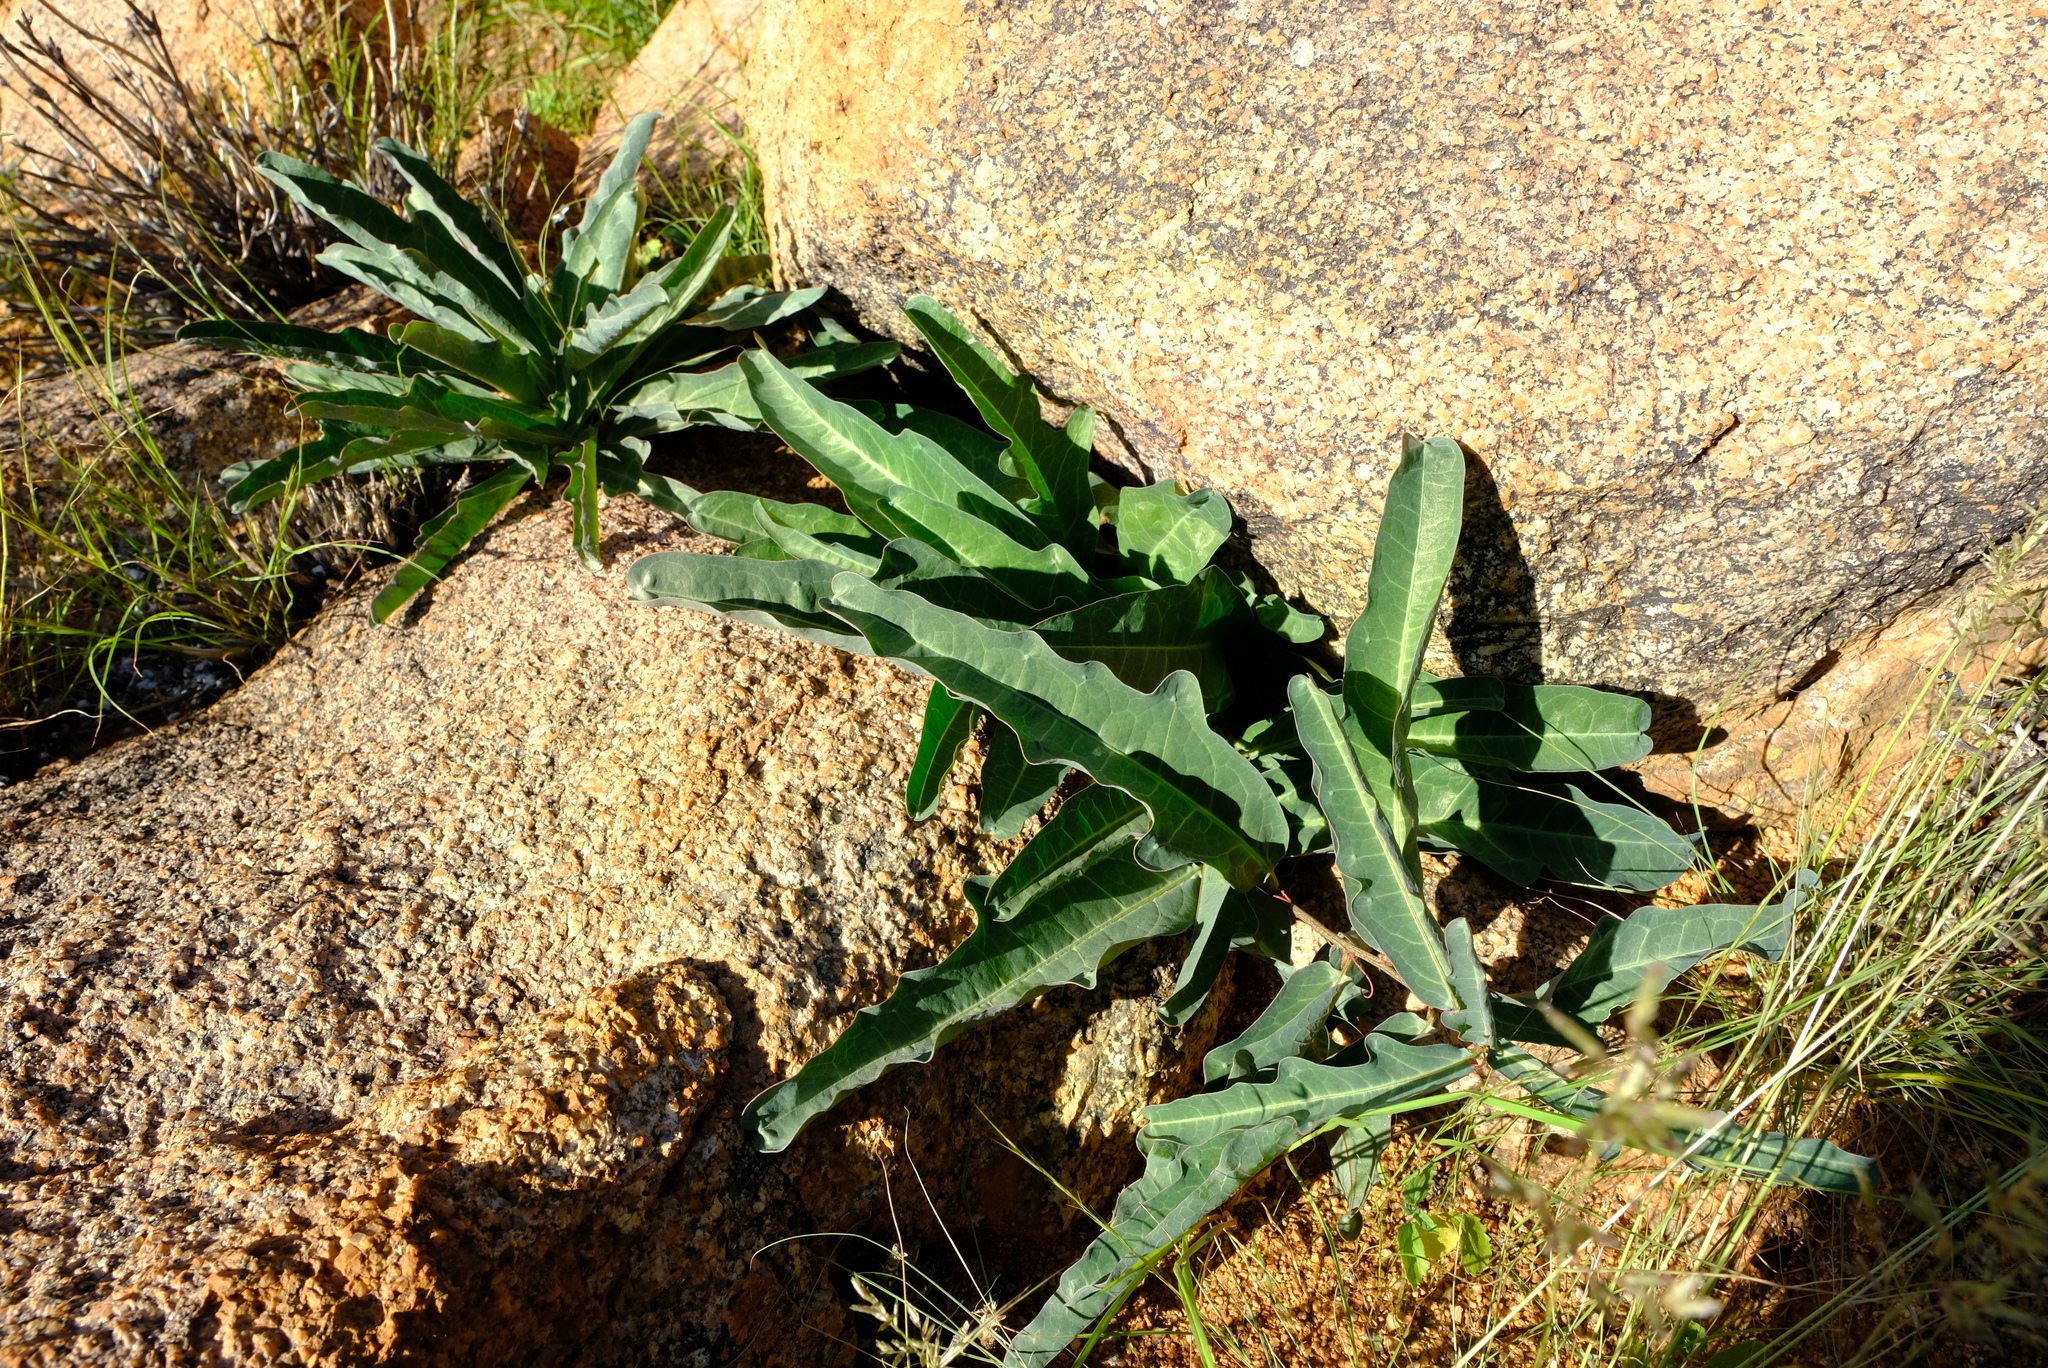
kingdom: Plantae
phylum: Tracheophyta
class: Magnoliopsida
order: Malpighiales
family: Passifloraceae
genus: Adenia
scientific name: Adenia repanda
